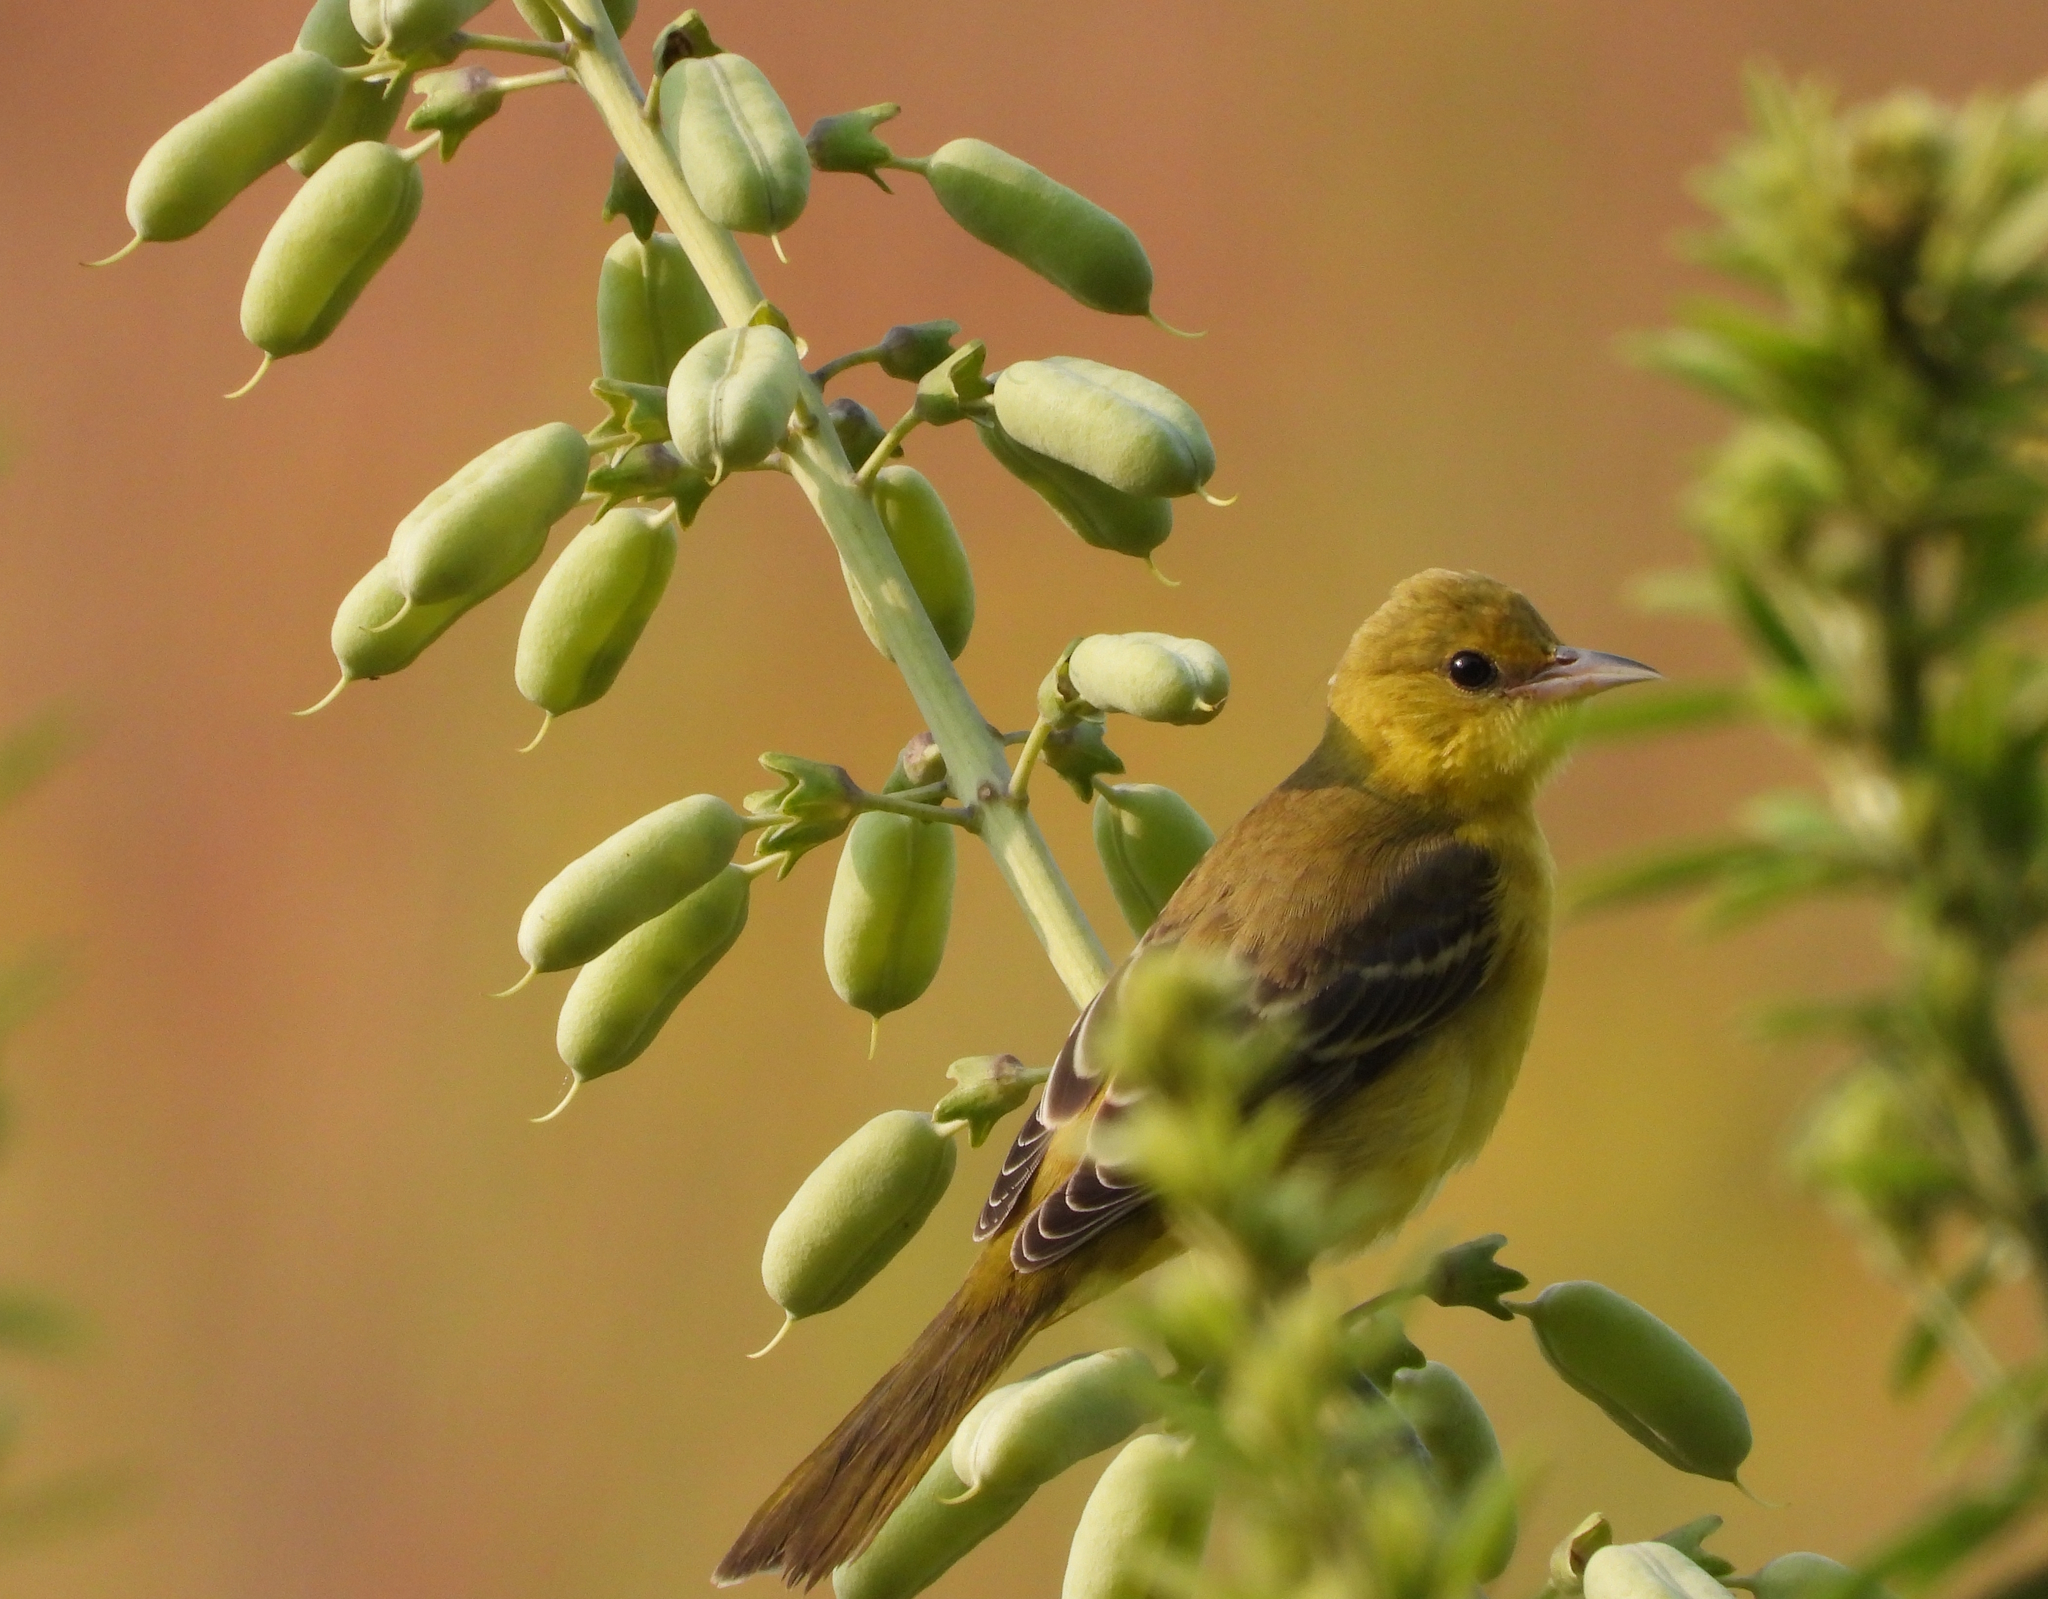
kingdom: Animalia
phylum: Chordata
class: Aves
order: Passeriformes
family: Icteridae
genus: Icterus
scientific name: Icterus spurius
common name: Orchard oriole
